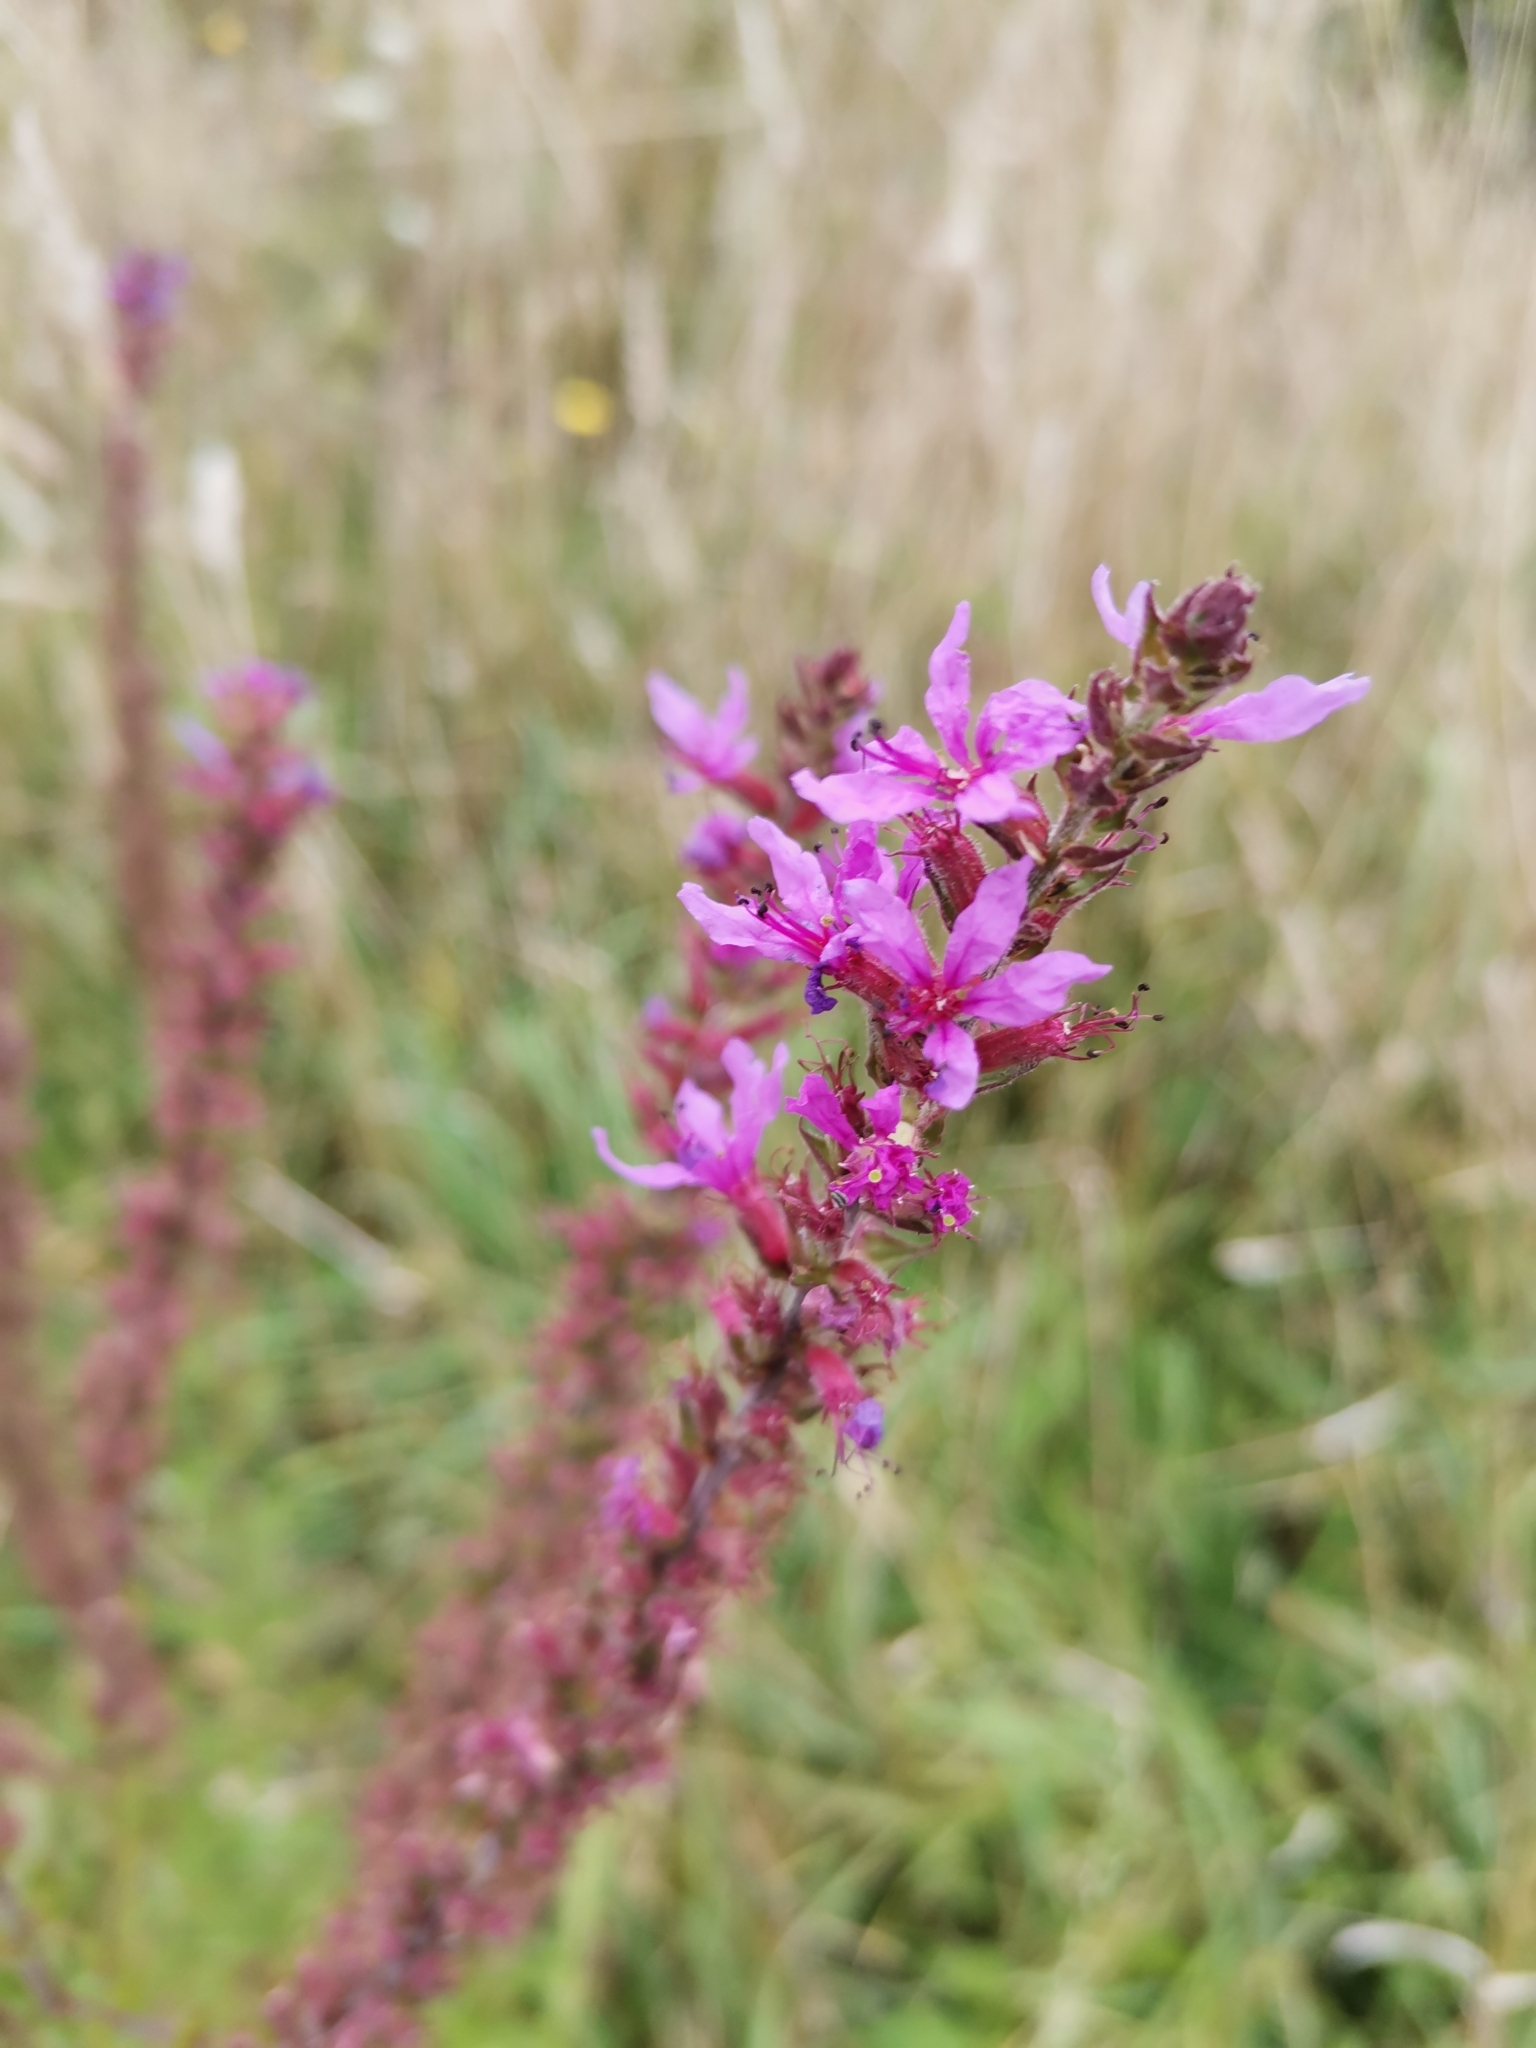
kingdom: Plantae
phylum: Tracheophyta
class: Magnoliopsida
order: Myrtales
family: Lythraceae
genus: Lythrum
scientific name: Lythrum salicaria
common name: Purple loosestrife
